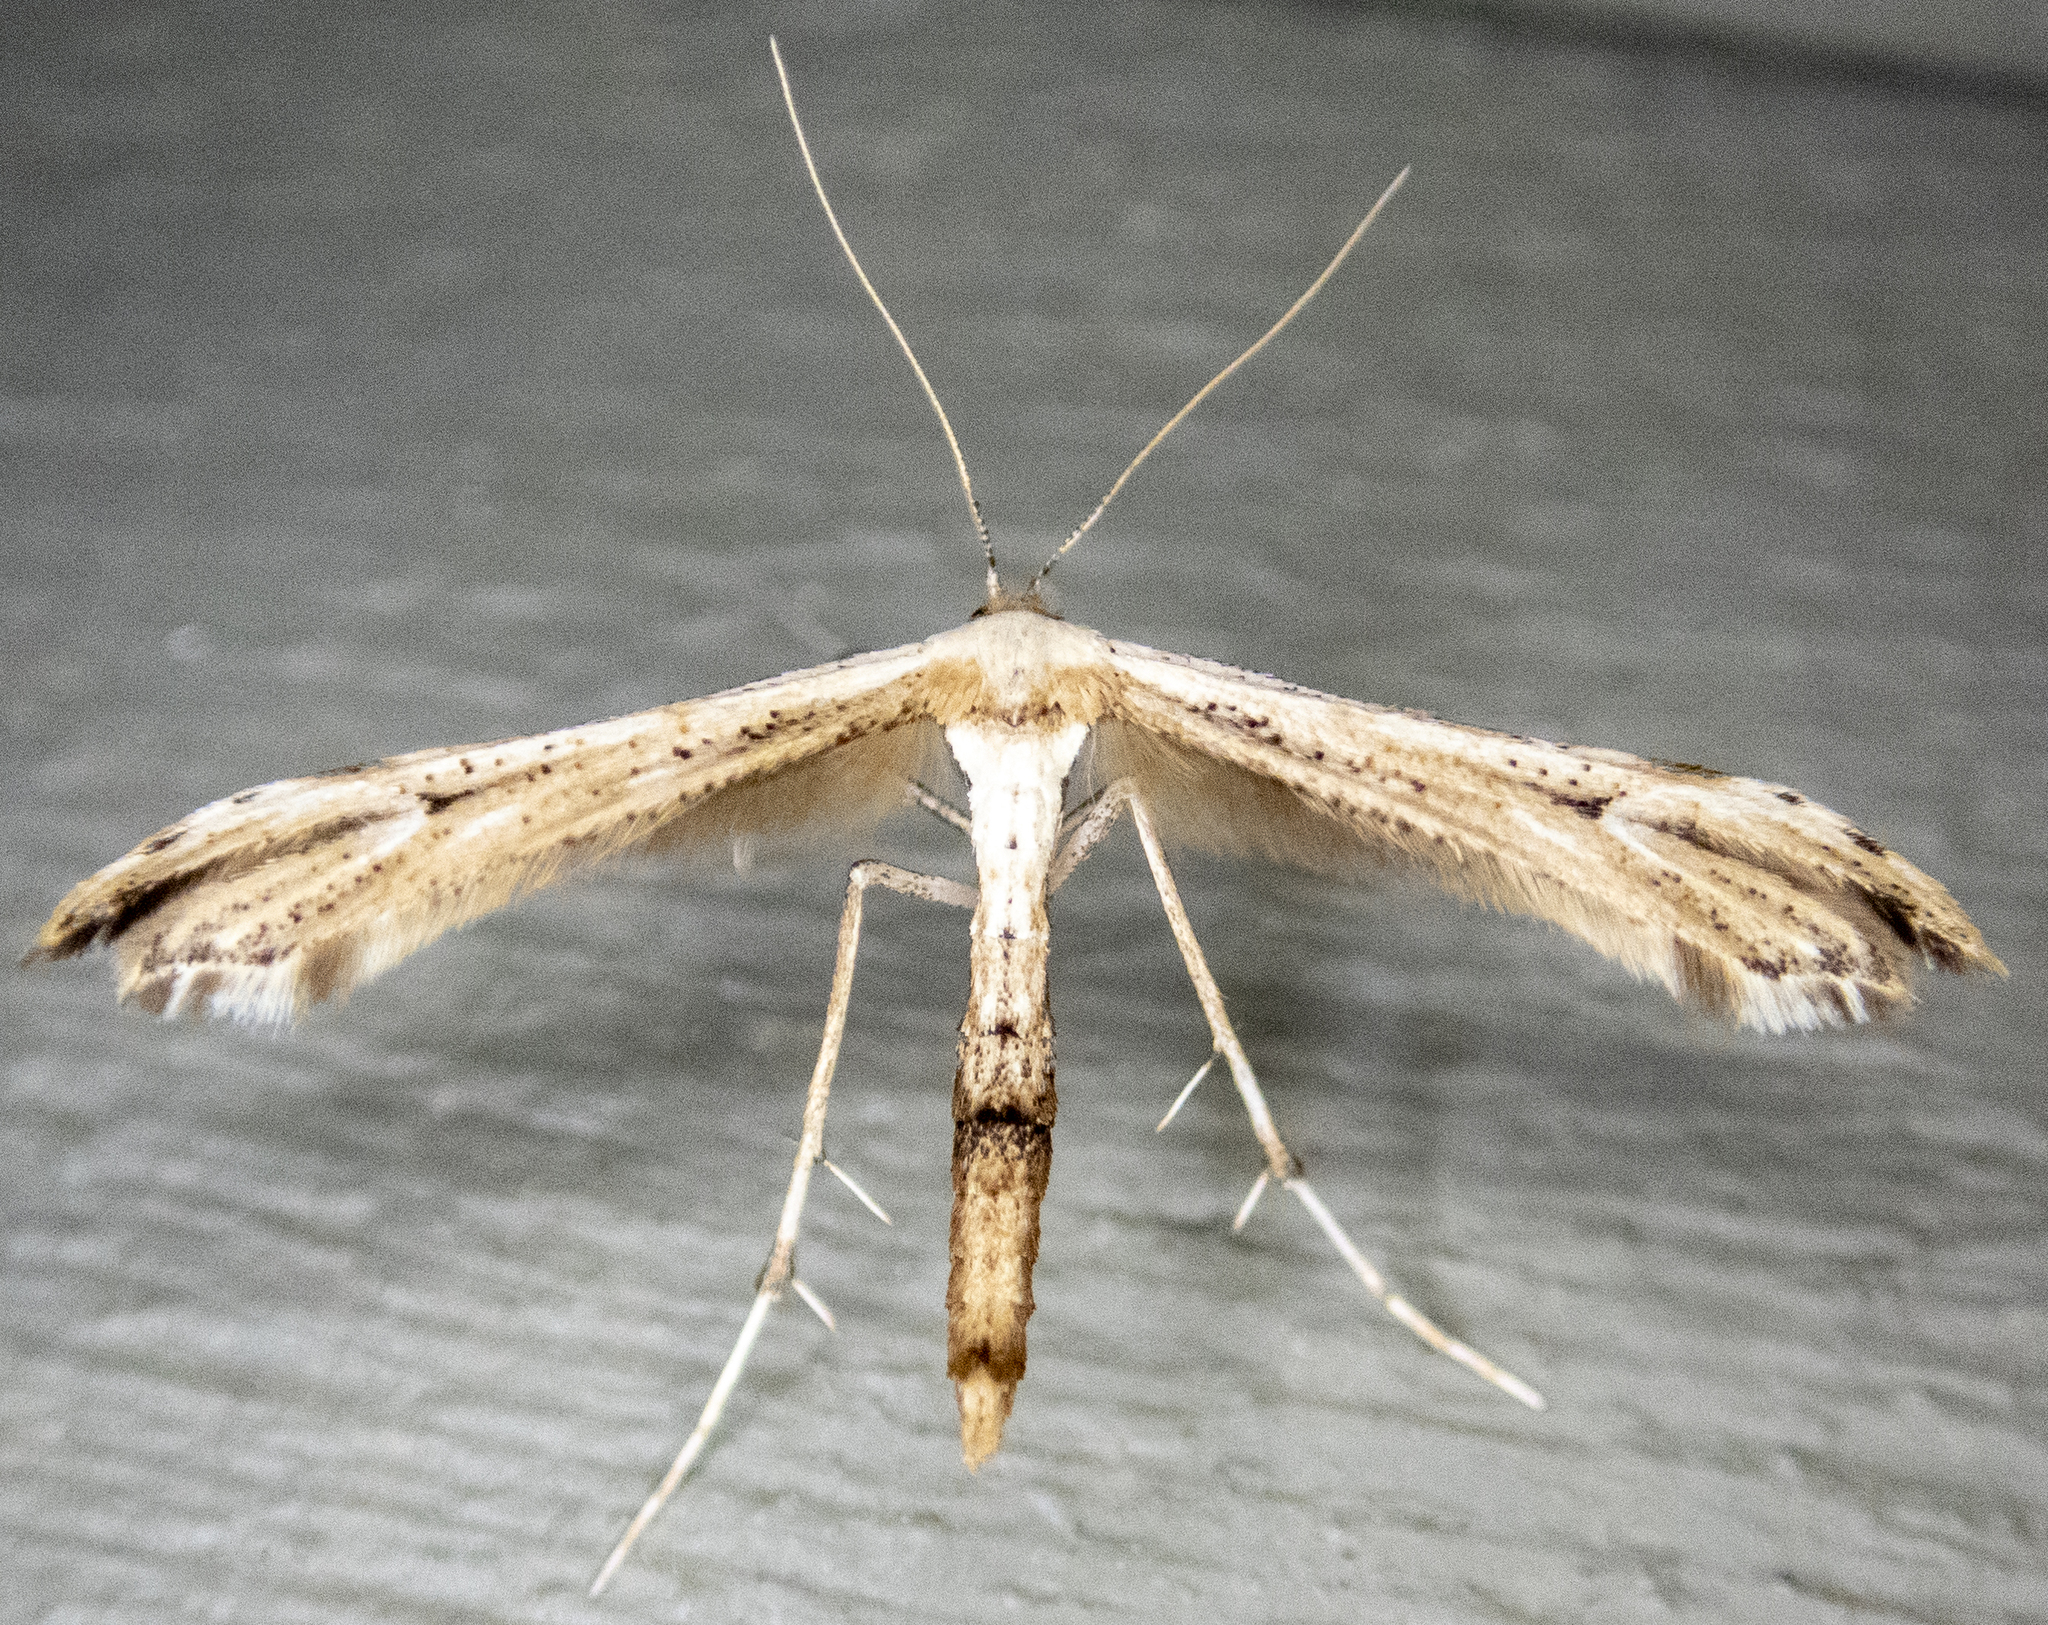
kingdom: Animalia
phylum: Arthropoda
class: Insecta
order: Lepidoptera
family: Pterophoridae
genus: Oidaematophorus
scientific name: Oidaematophorus eupatorii
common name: Eupatorium plume moth
